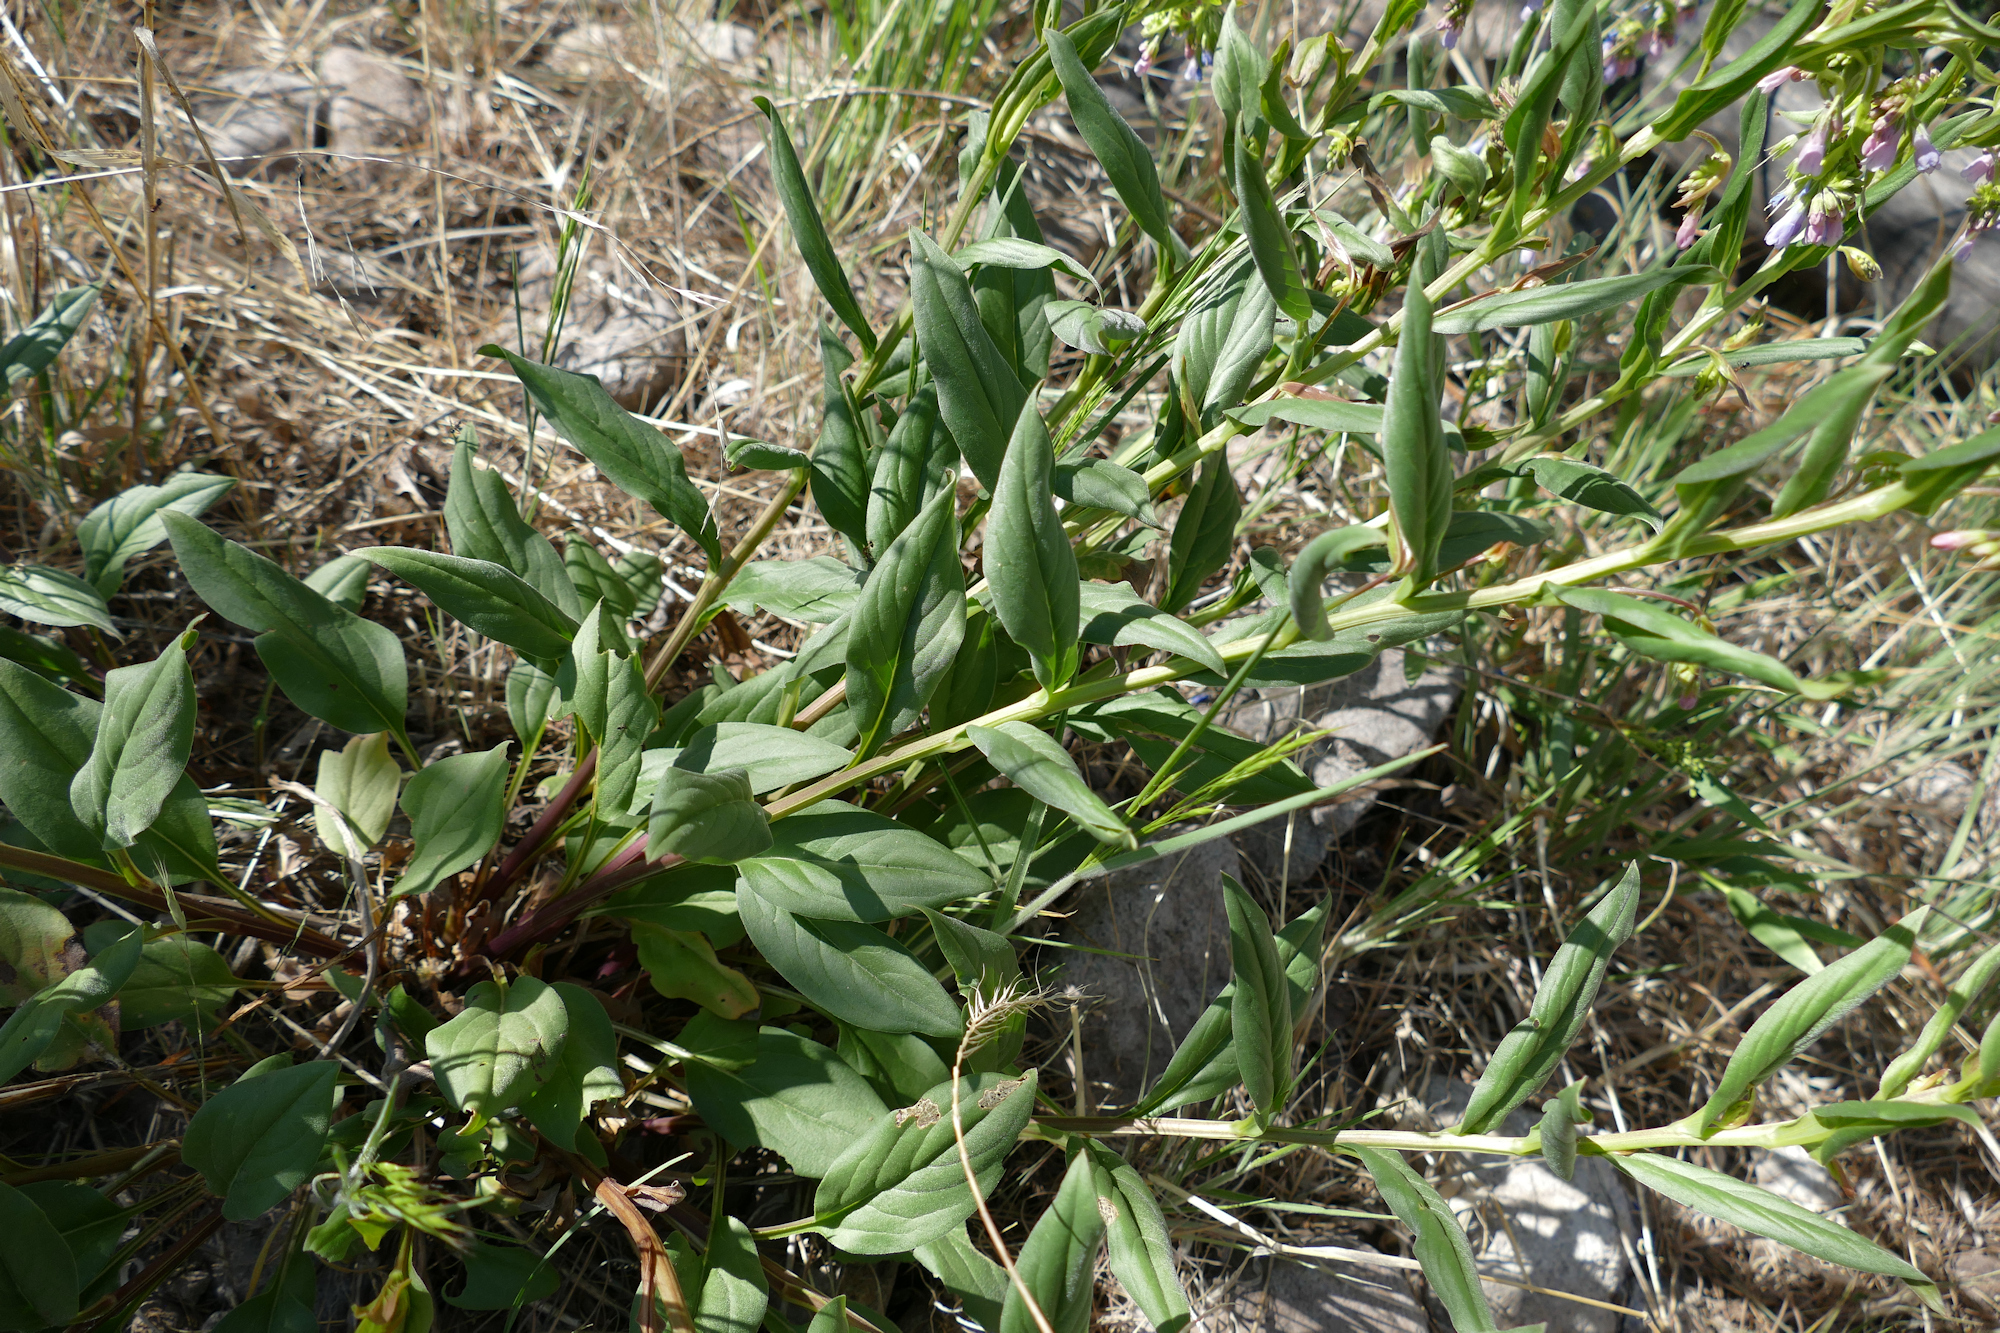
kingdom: Plantae
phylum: Tracheophyta
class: Magnoliopsida
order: Boraginales
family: Boraginaceae
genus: Mertensia
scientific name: Mertensia franciscana
